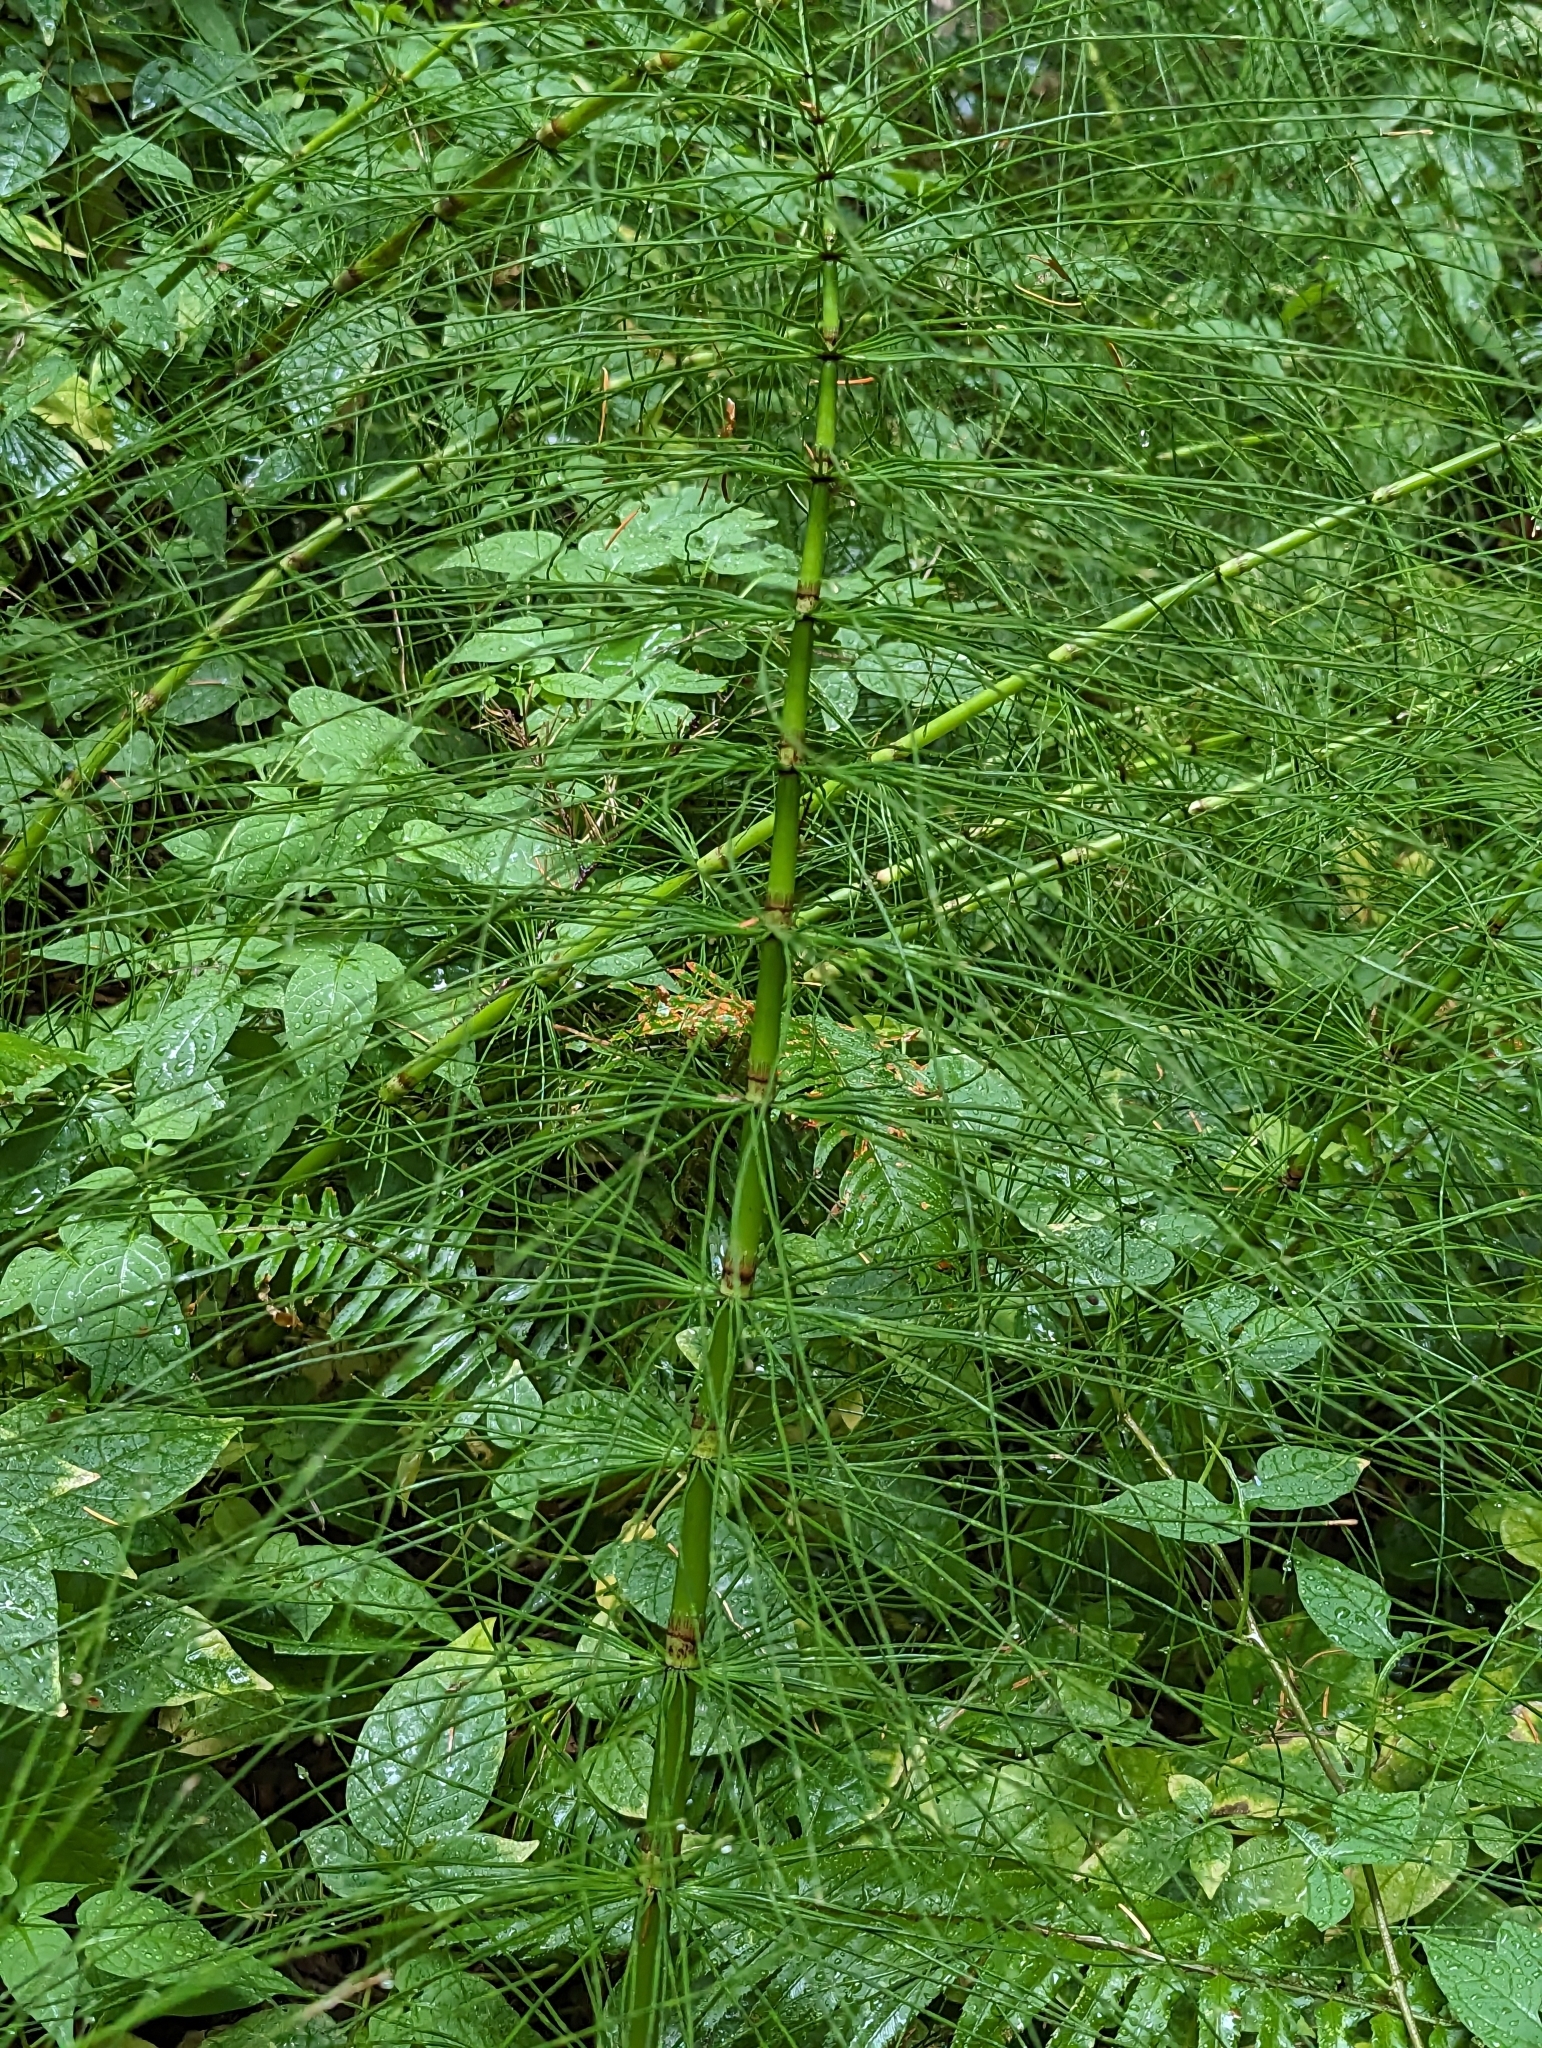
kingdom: Plantae
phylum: Tracheophyta
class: Polypodiopsida
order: Equisetales
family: Equisetaceae
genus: Equisetum
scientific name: Equisetum telmateia
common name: Great horsetail
